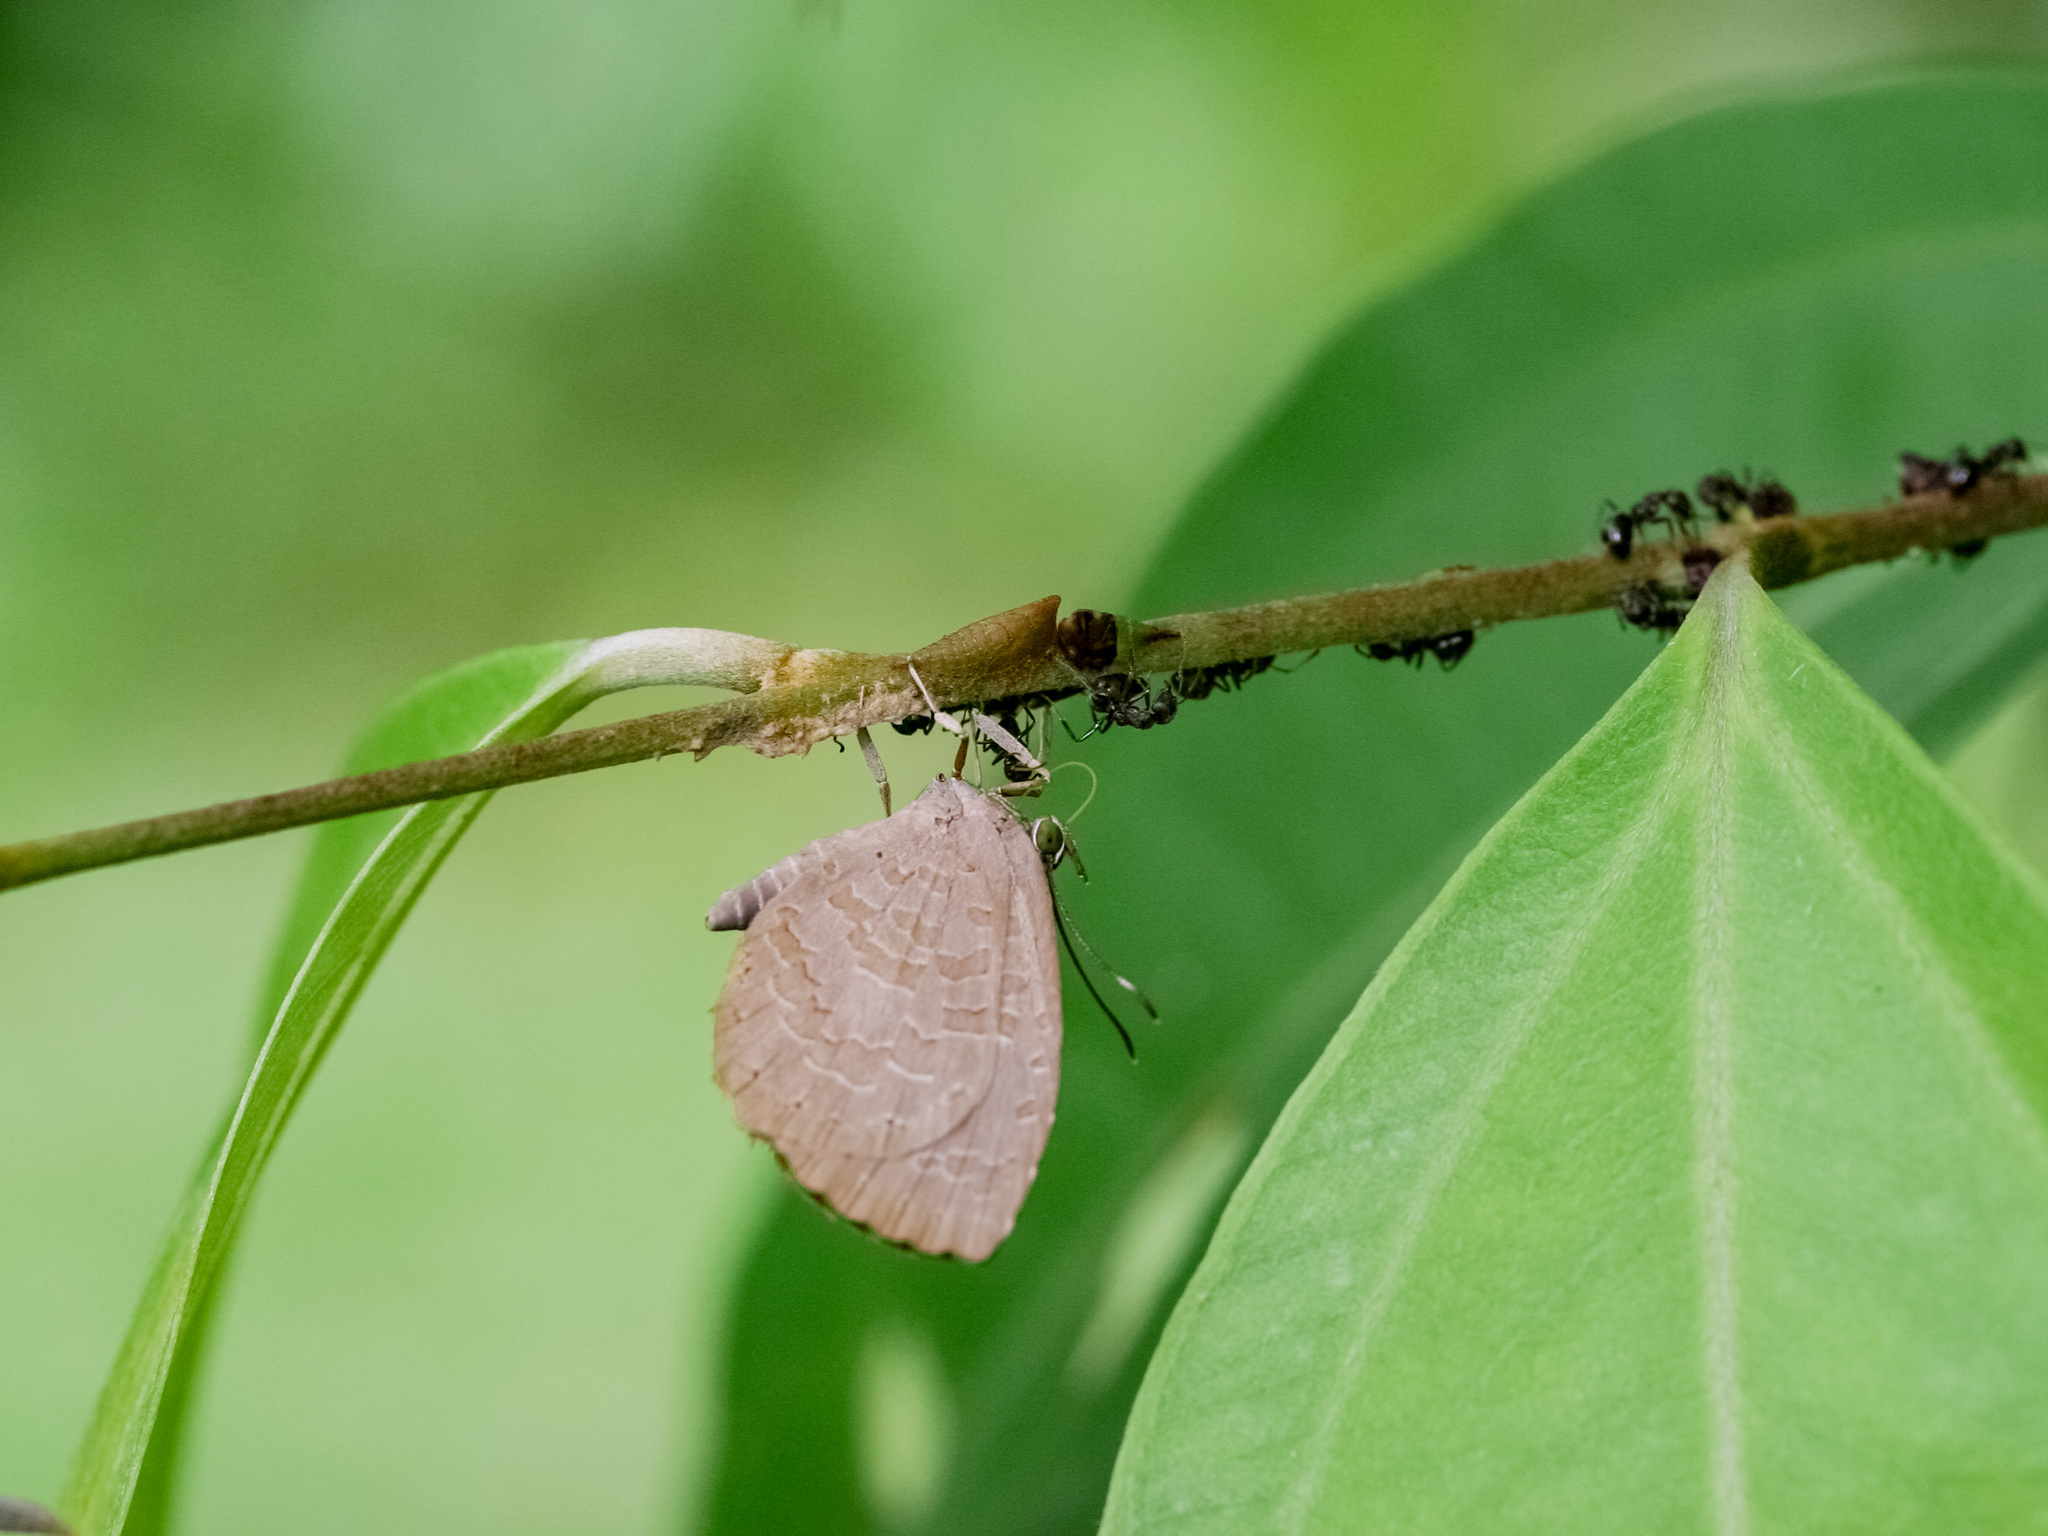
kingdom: Animalia
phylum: Arthropoda
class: Insecta
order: Lepidoptera
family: Lycaenidae
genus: Miletus
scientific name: Miletus biggsii
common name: Bigg's brownie
